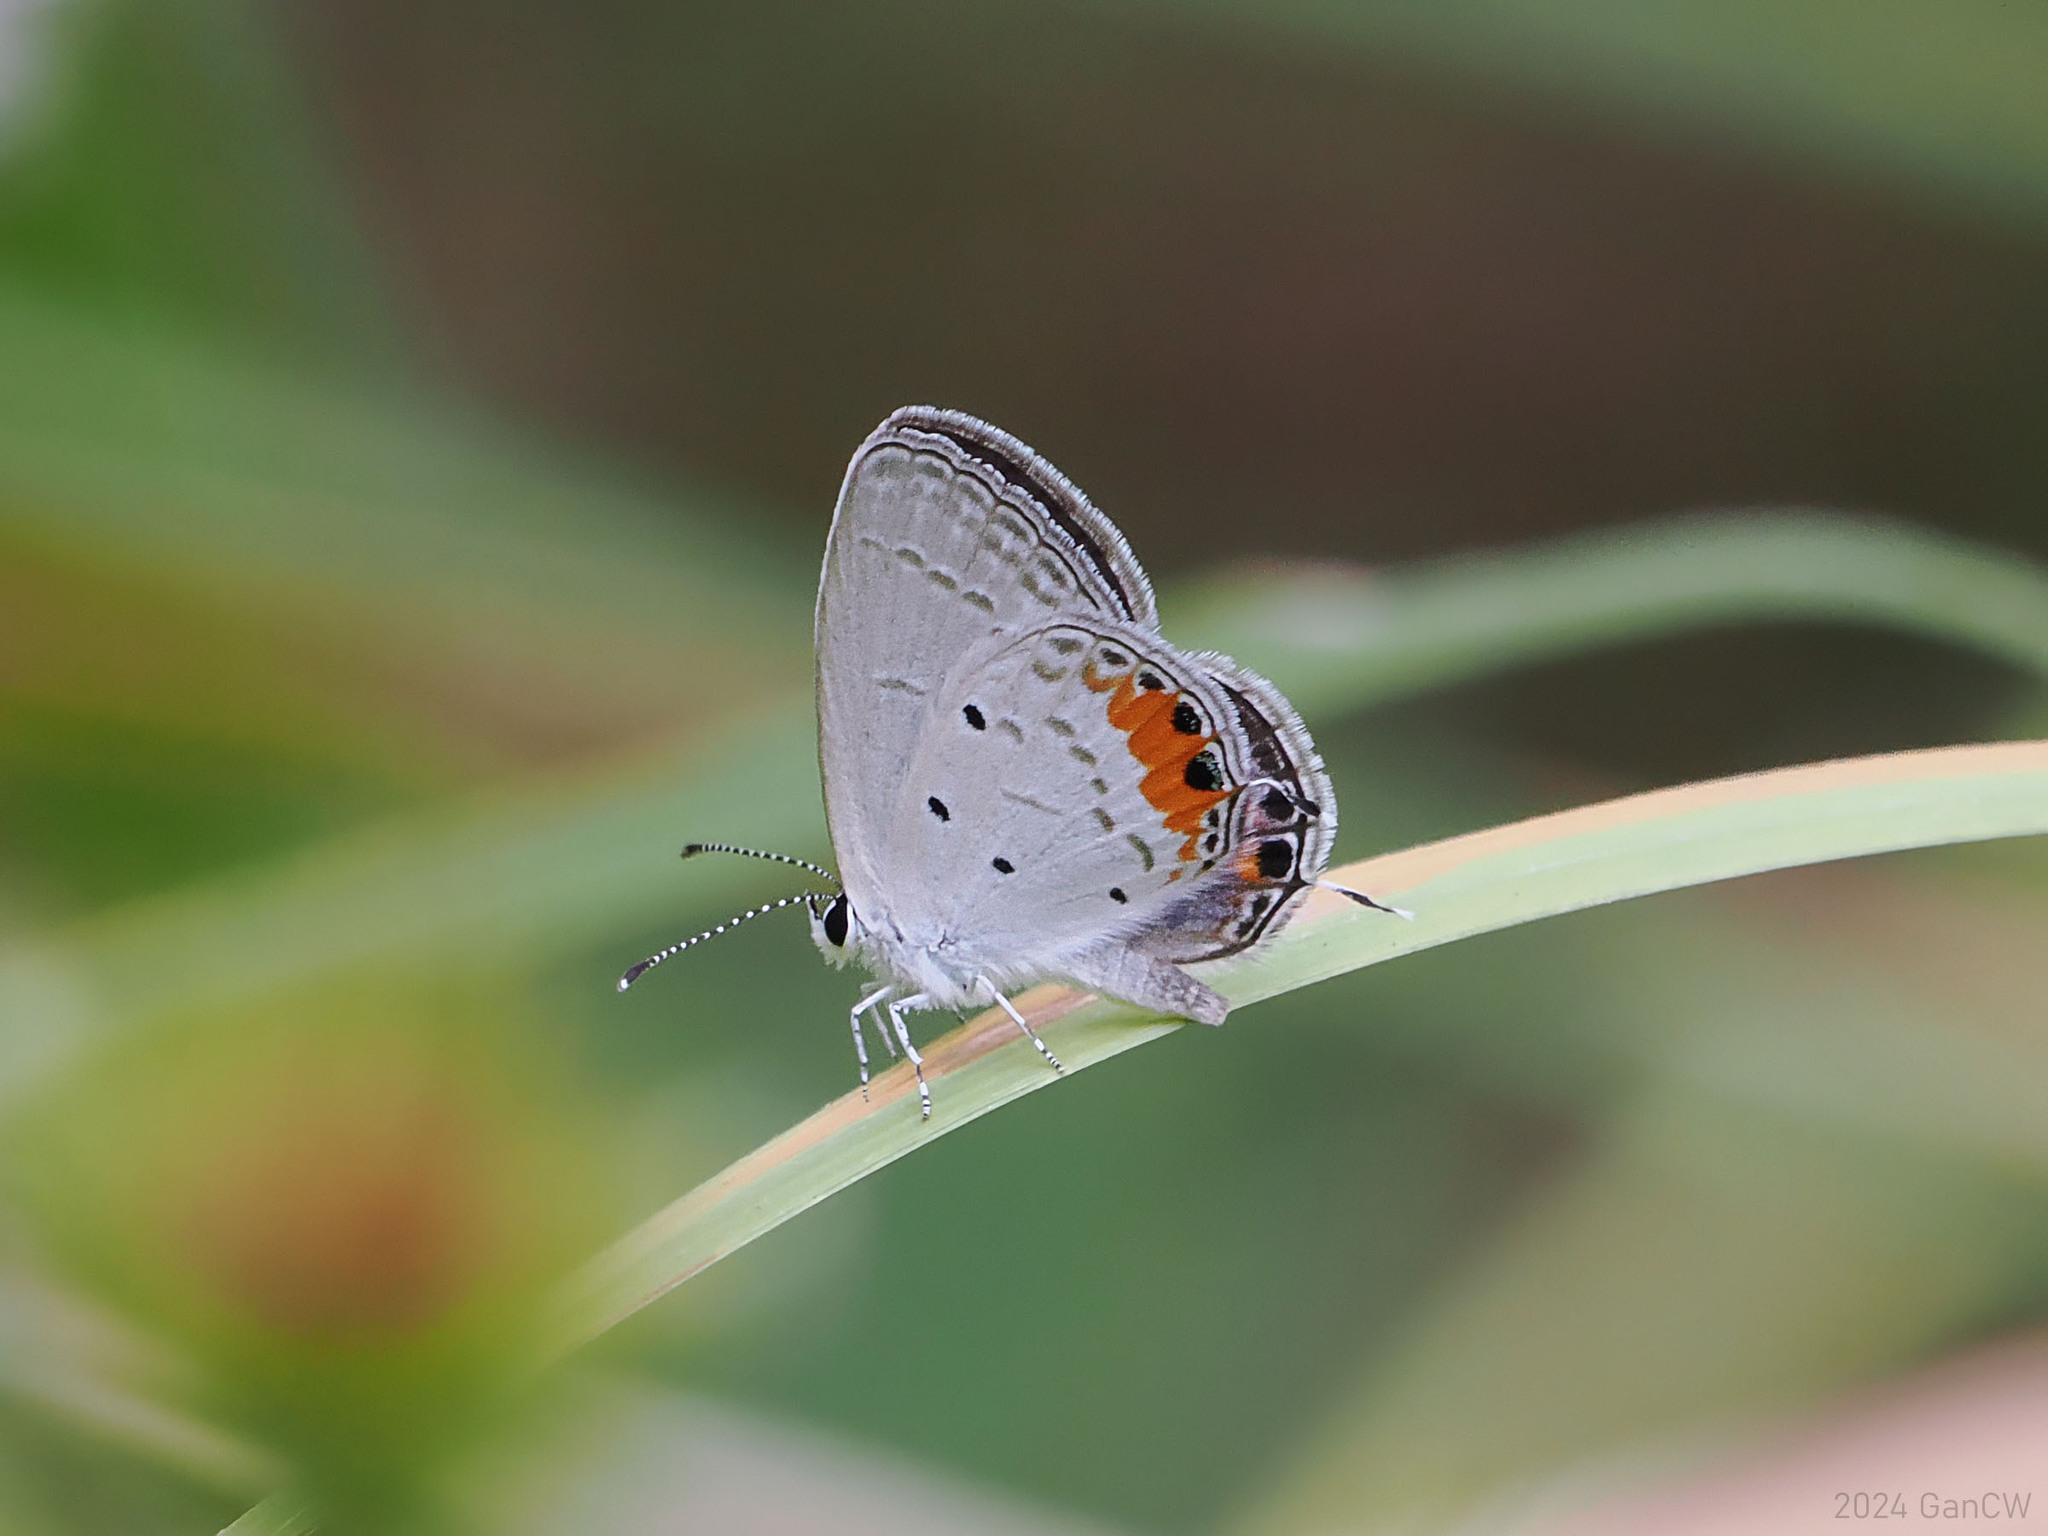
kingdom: Animalia
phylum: Arthropoda
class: Insecta
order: Lepidoptera
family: Lycaenidae
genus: Everes
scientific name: Everes lacturnus
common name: Orange-tipped pea-blue
